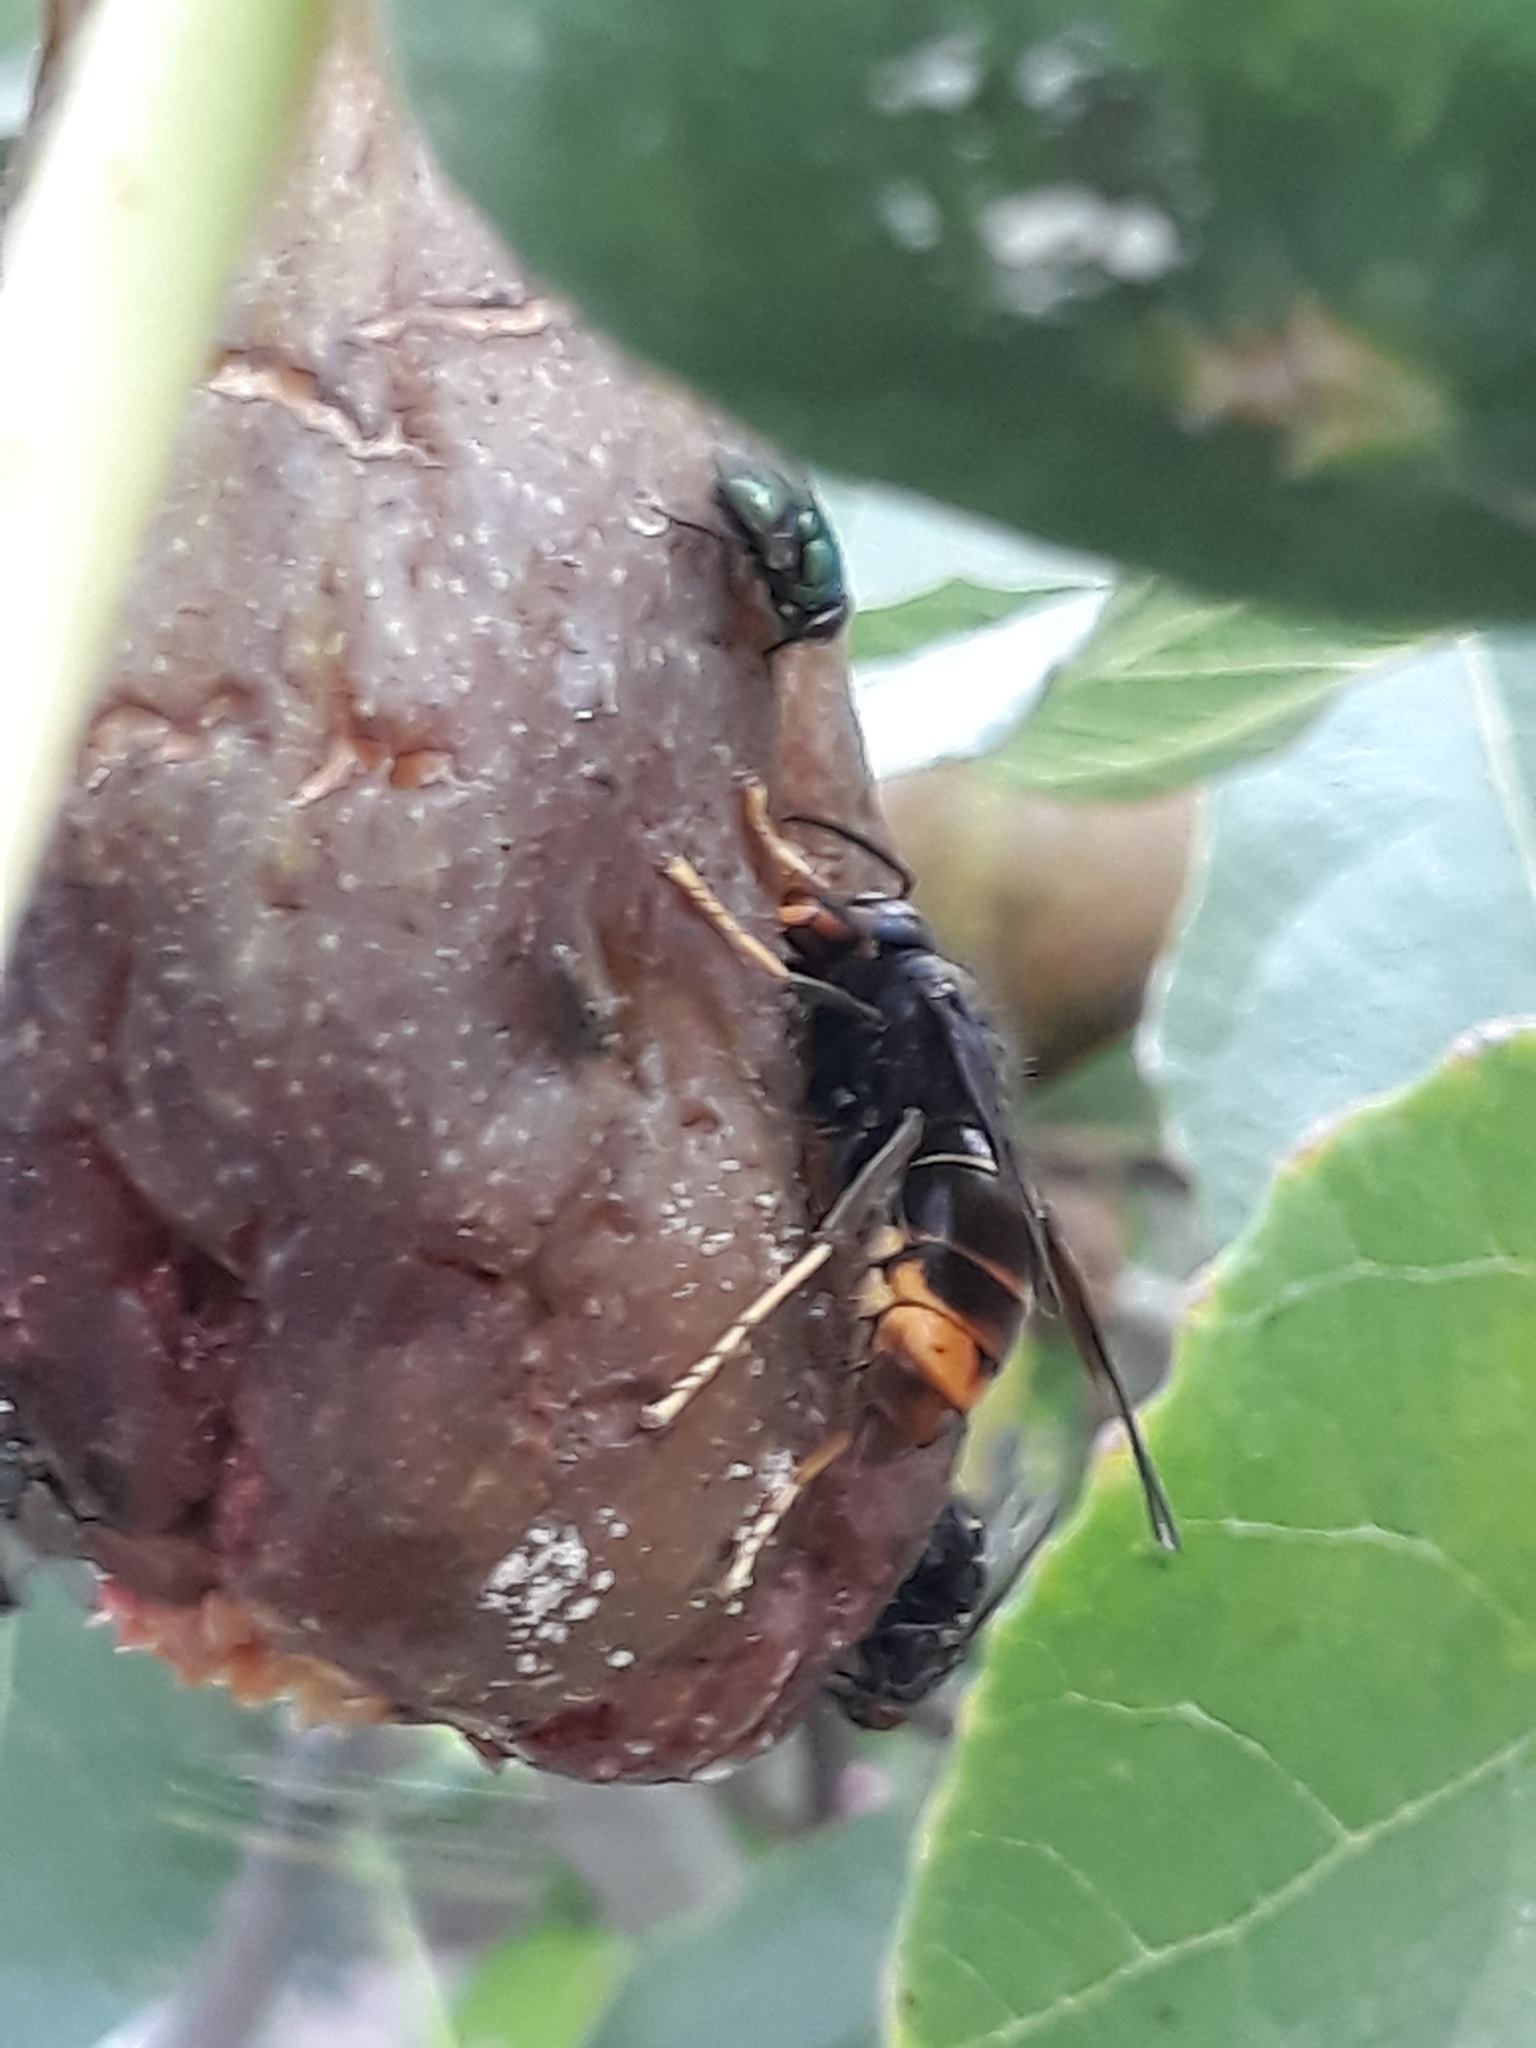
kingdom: Animalia
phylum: Arthropoda
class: Insecta
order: Hymenoptera
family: Vespidae
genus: Vespa
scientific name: Vespa velutina
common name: Asian hornet
